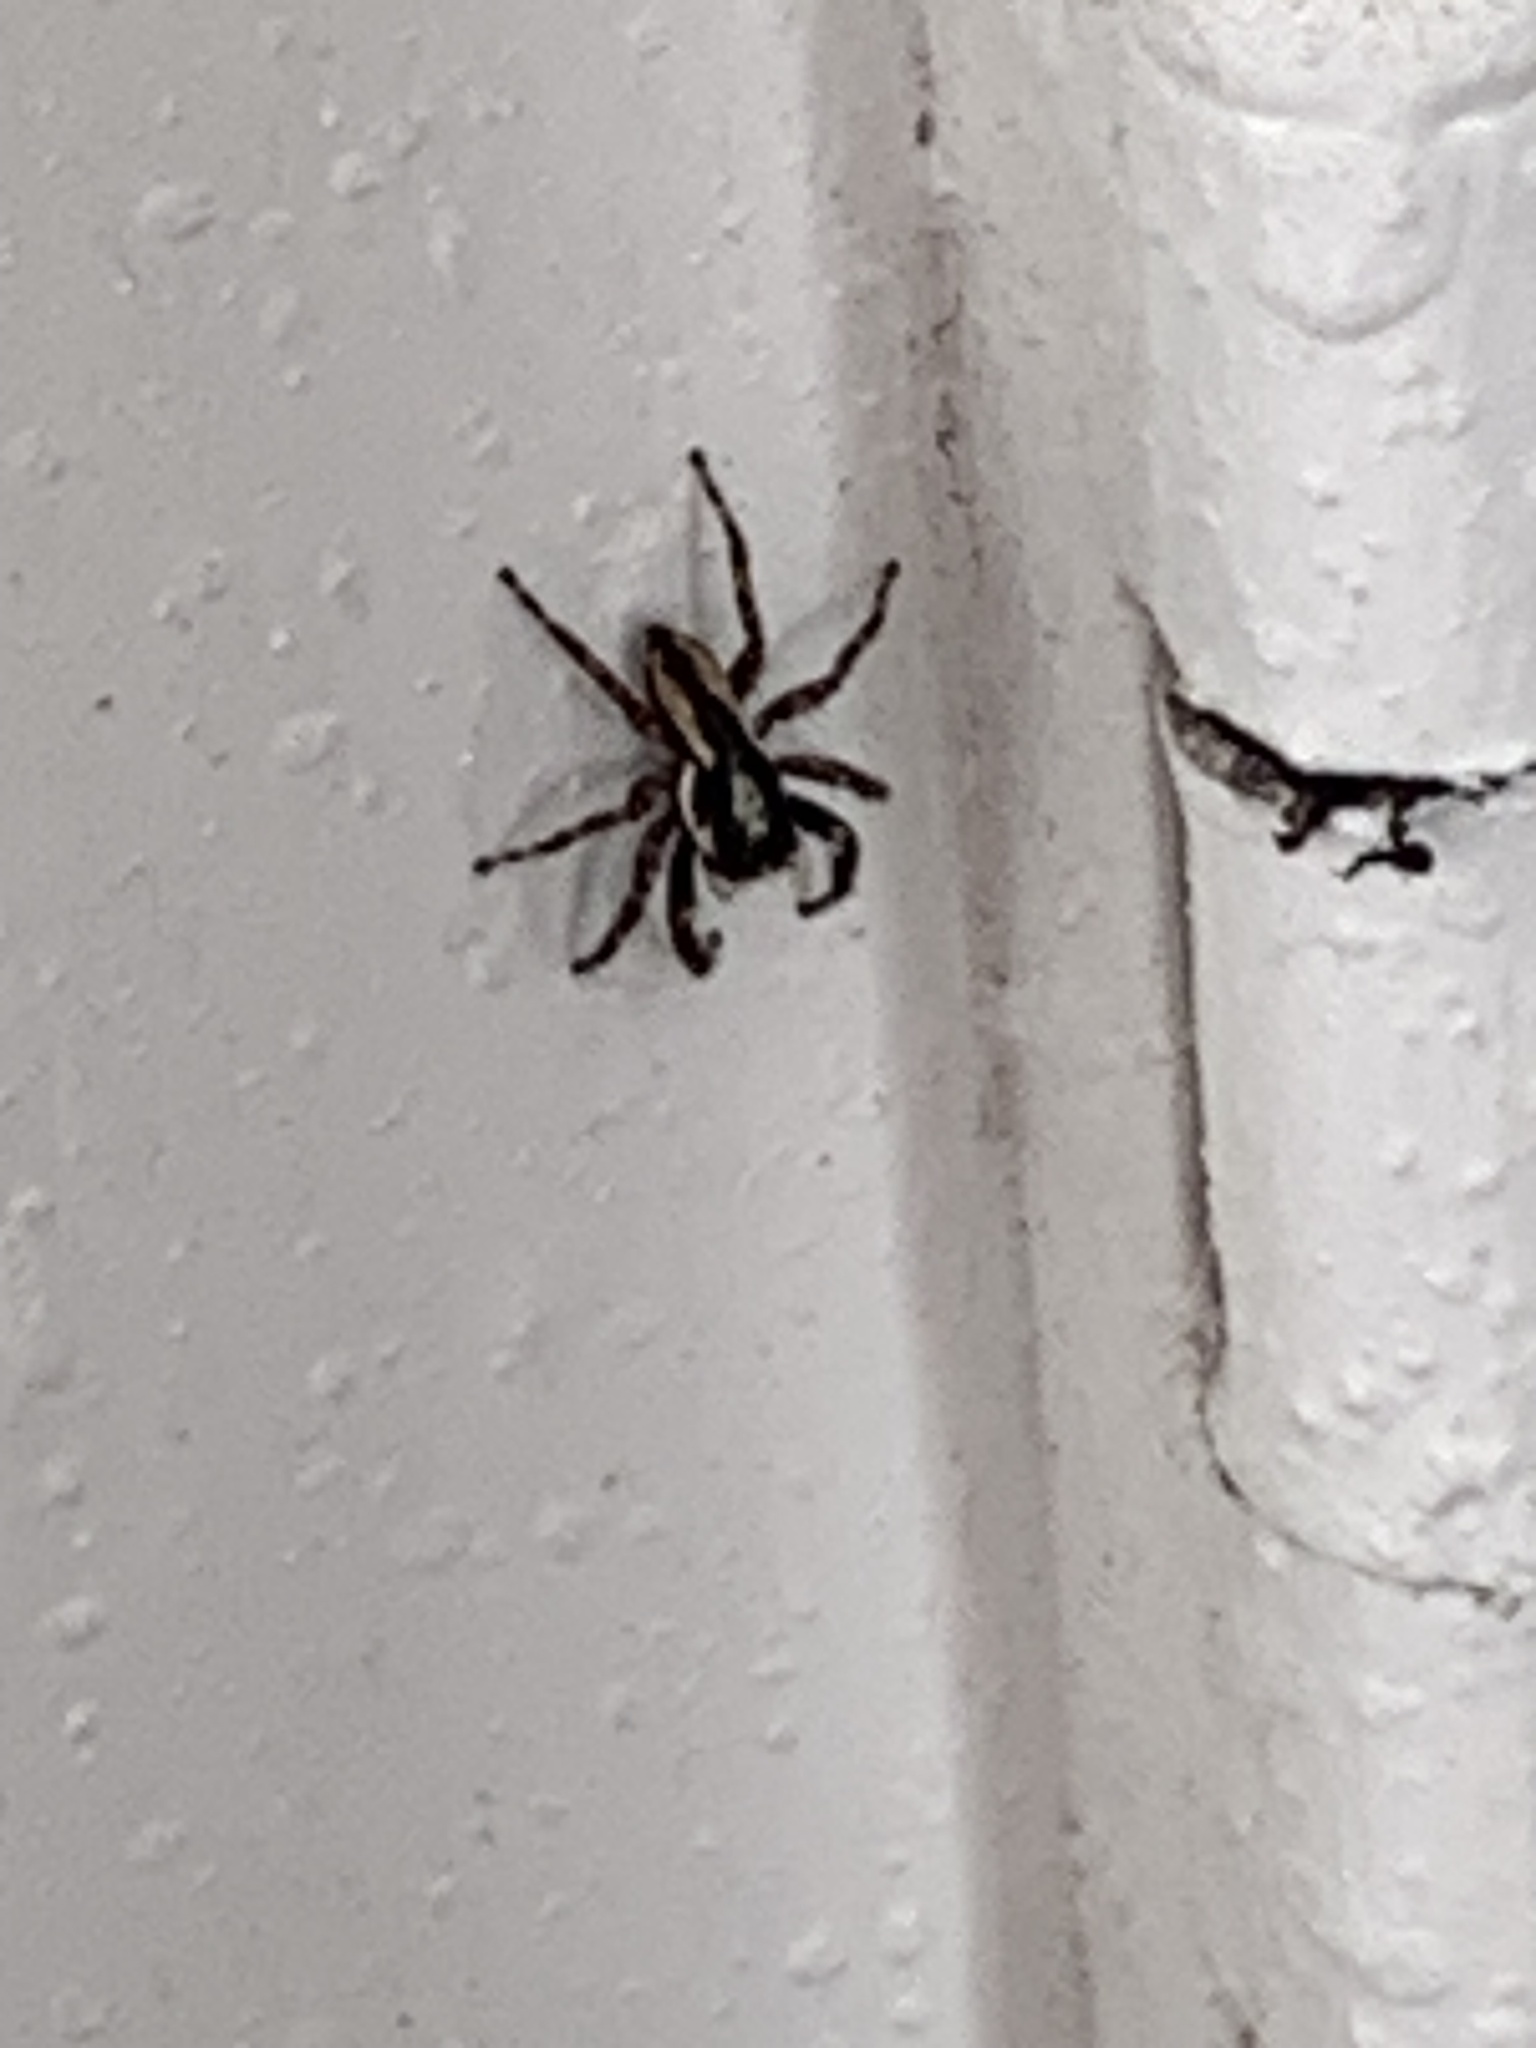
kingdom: Animalia
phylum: Arthropoda
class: Arachnida
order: Araneae
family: Salticidae
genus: Menemerus
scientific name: Menemerus bivittatus
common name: Gray wall jumper
